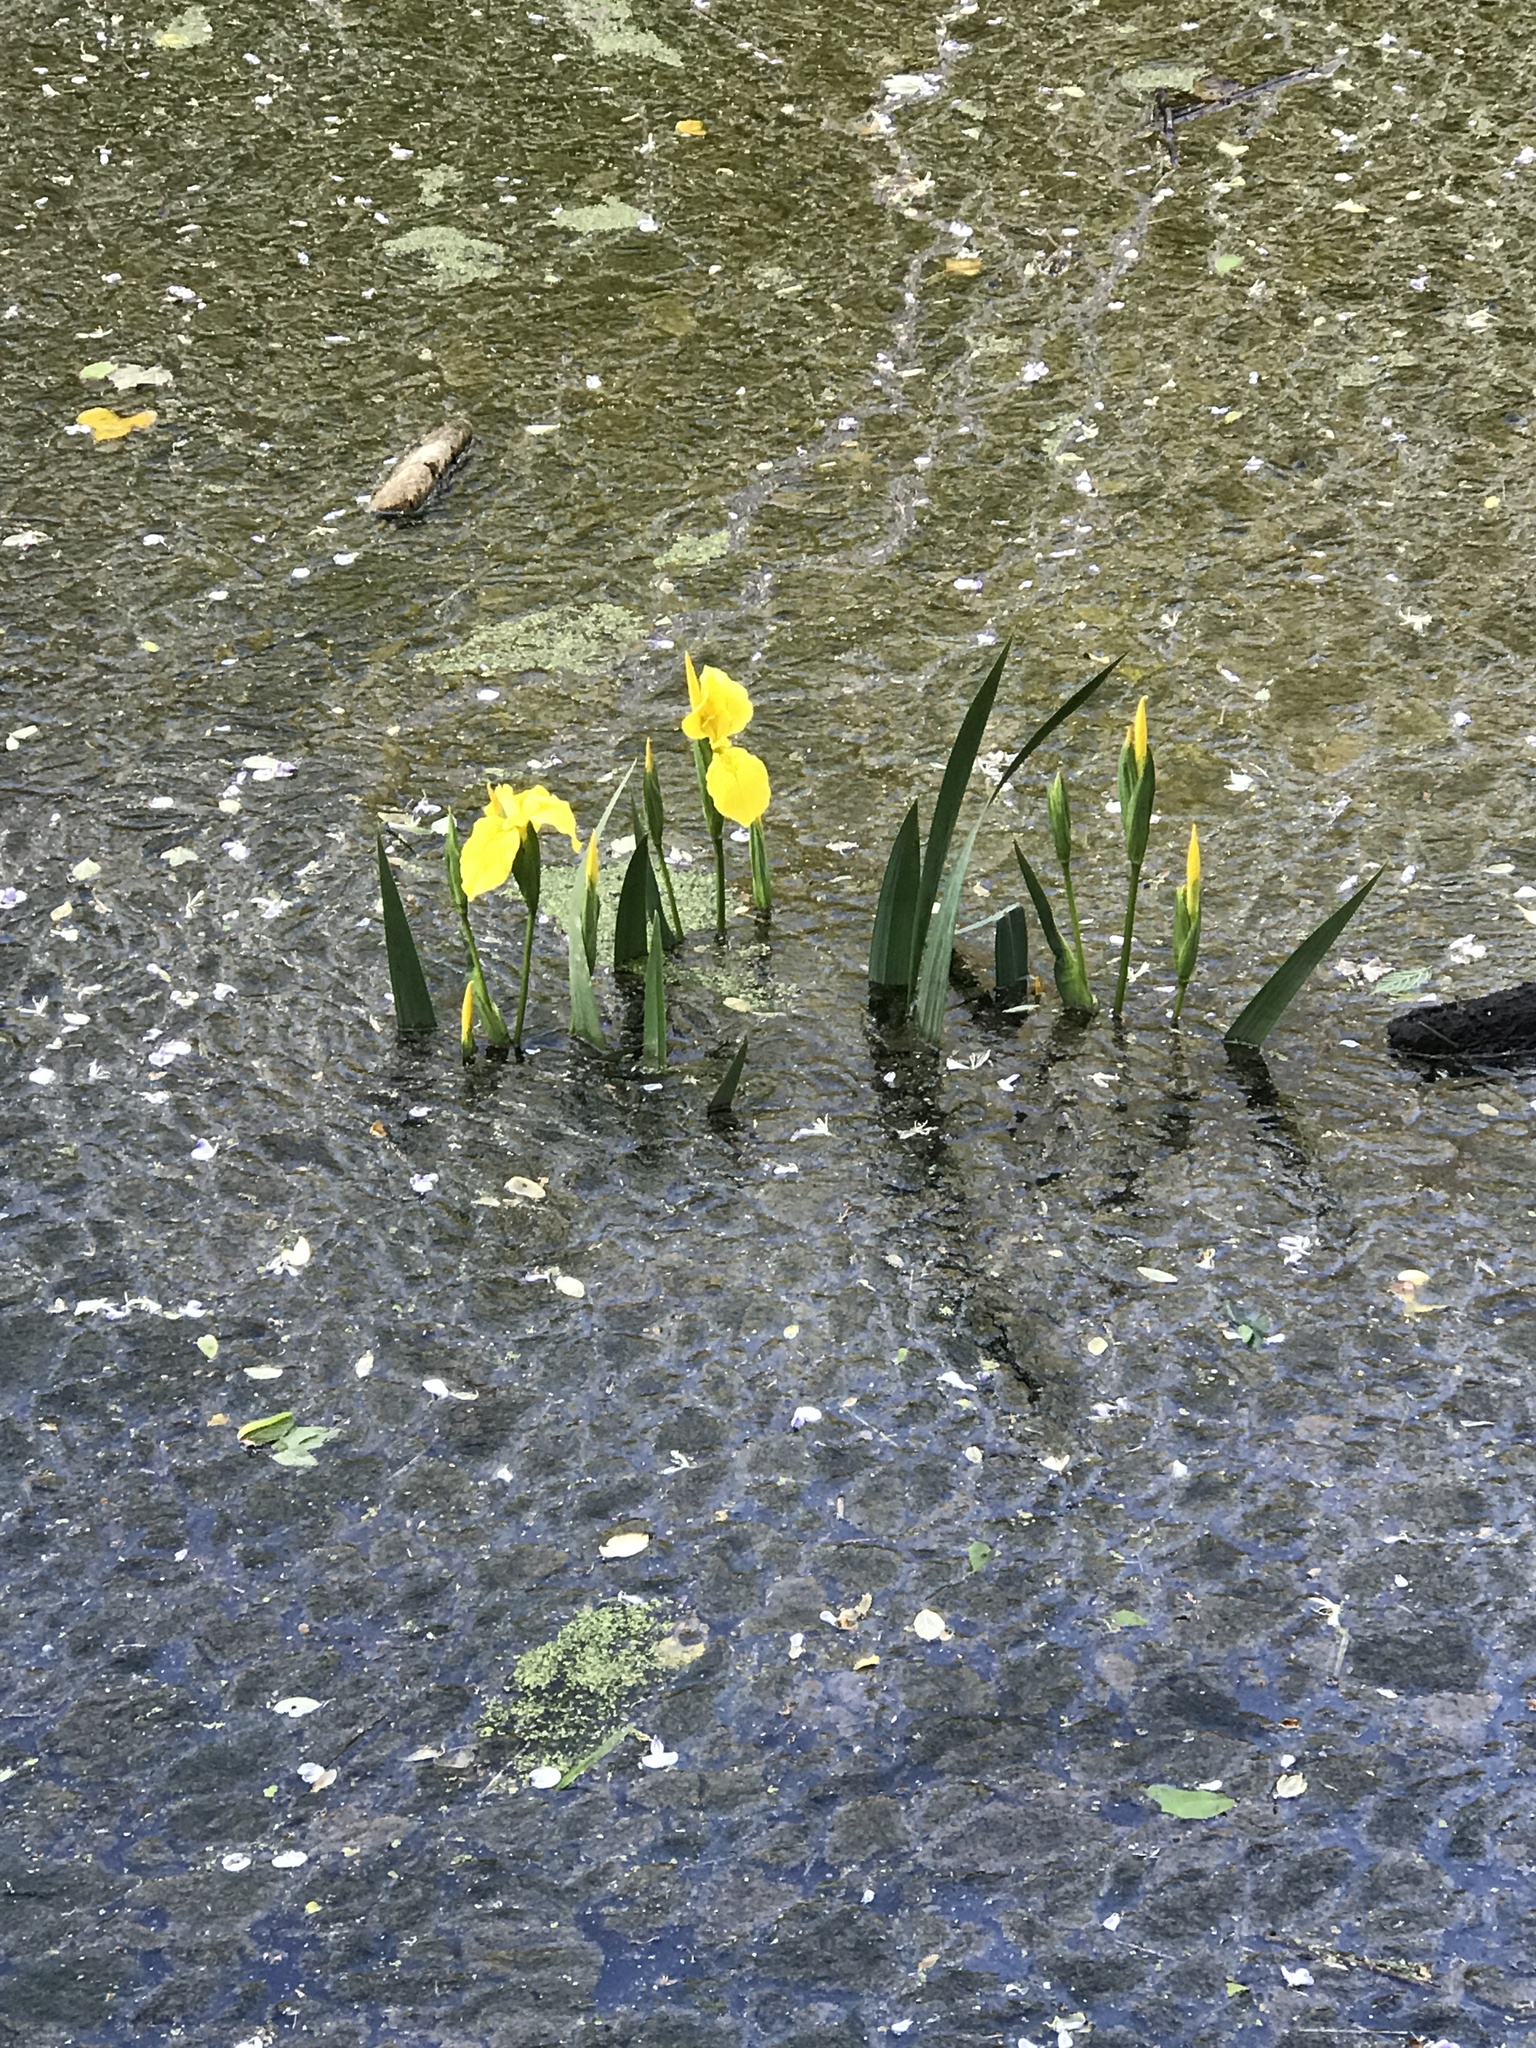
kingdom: Plantae
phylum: Tracheophyta
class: Liliopsida
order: Asparagales
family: Iridaceae
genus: Iris
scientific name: Iris pseudacorus
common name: Yellow flag
